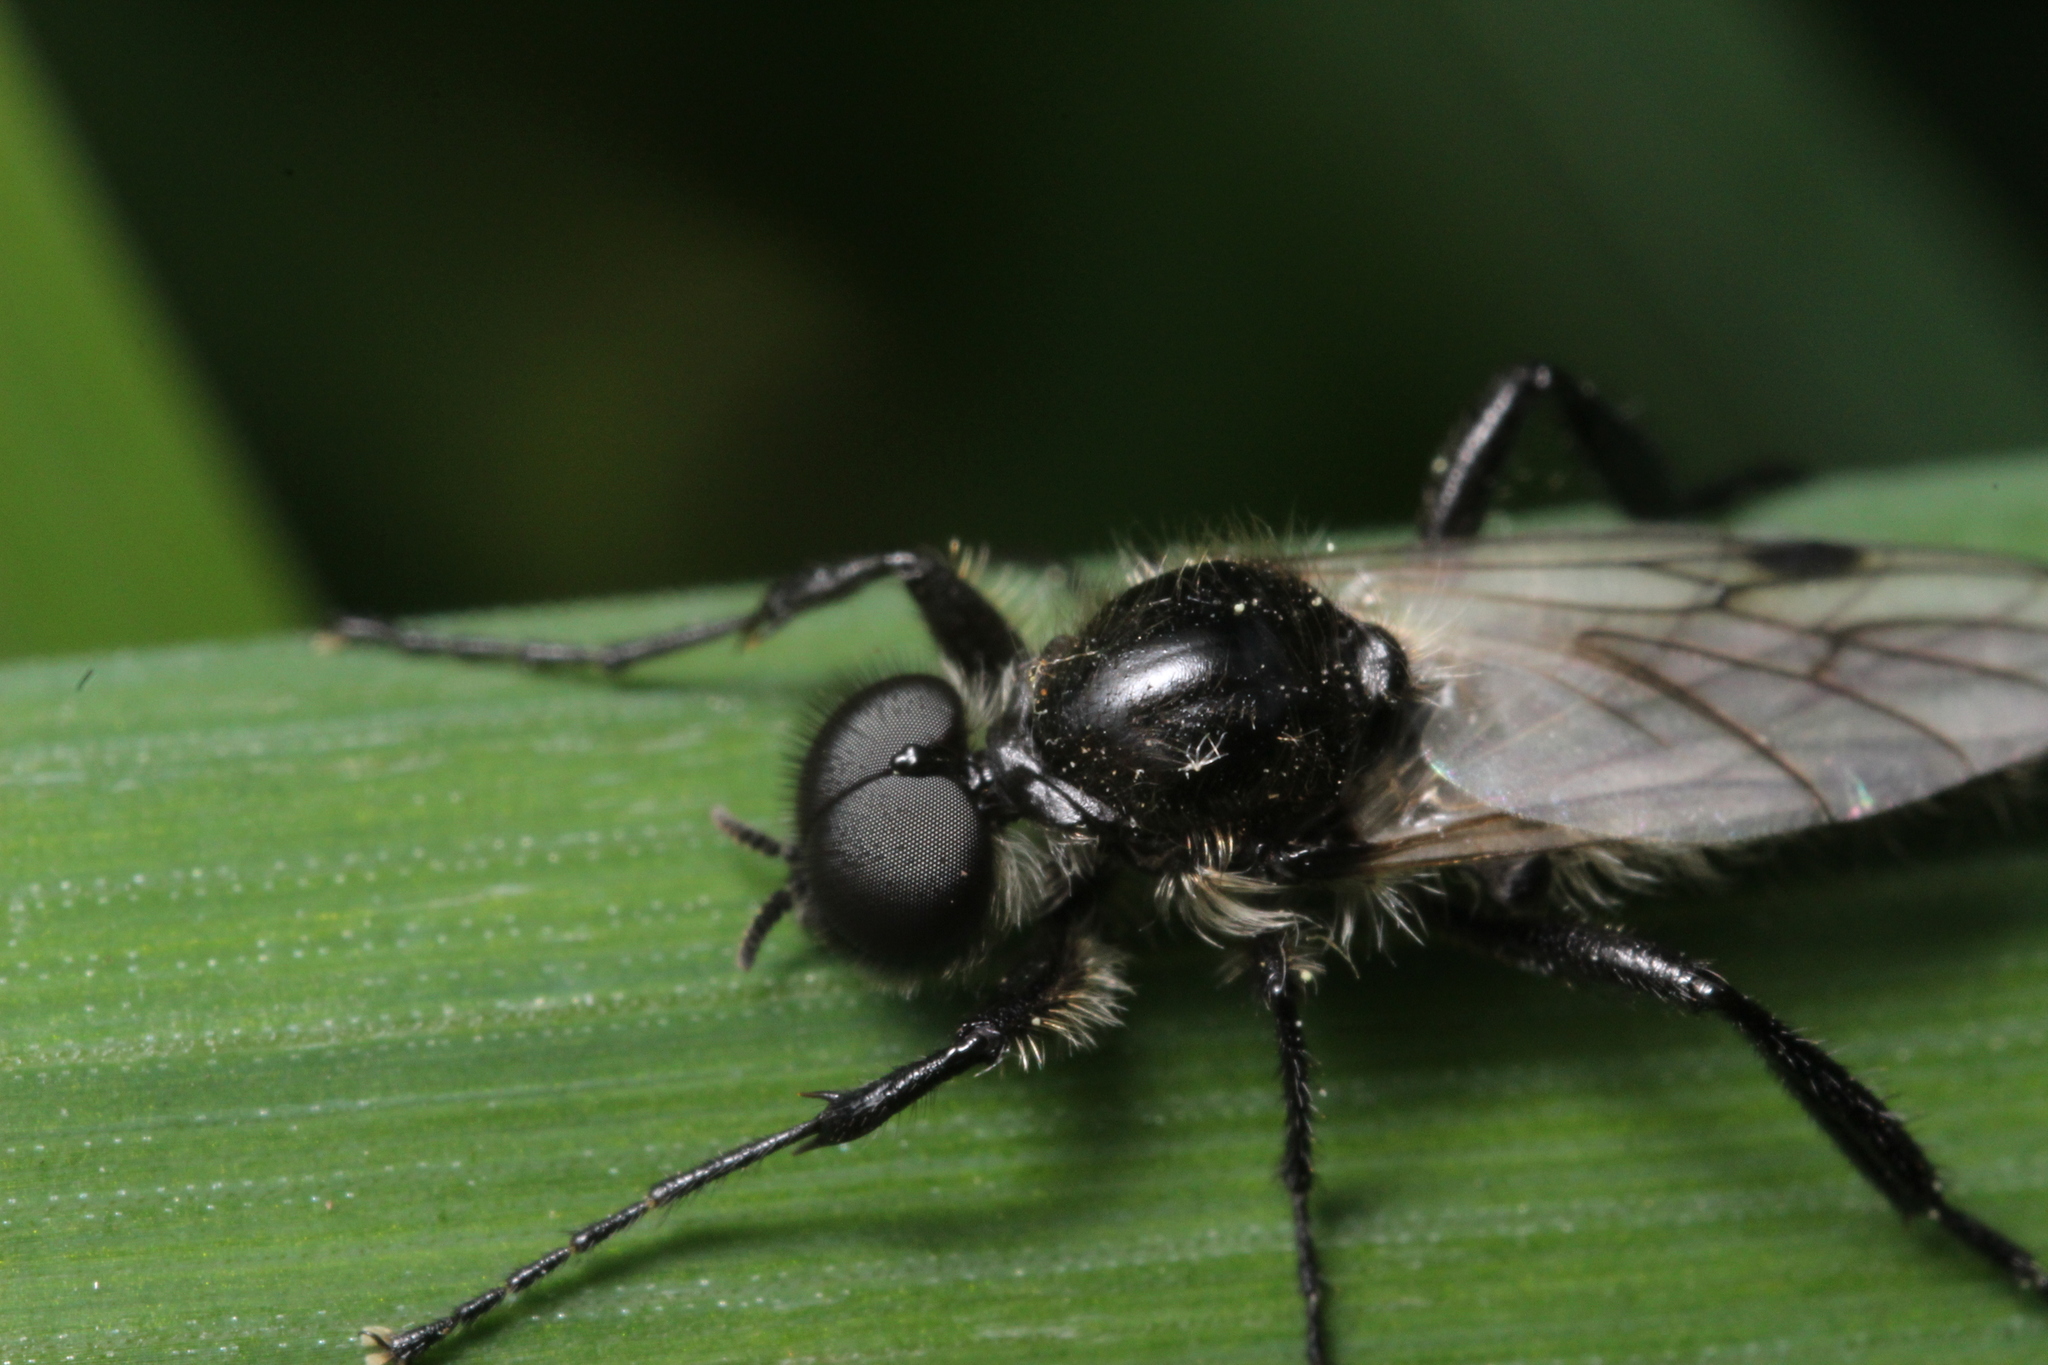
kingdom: Animalia
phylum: Arthropoda
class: Insecta
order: Diptera
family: Bibionidae
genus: Bibio
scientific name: Bibio albipennis
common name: White-winged march fly
